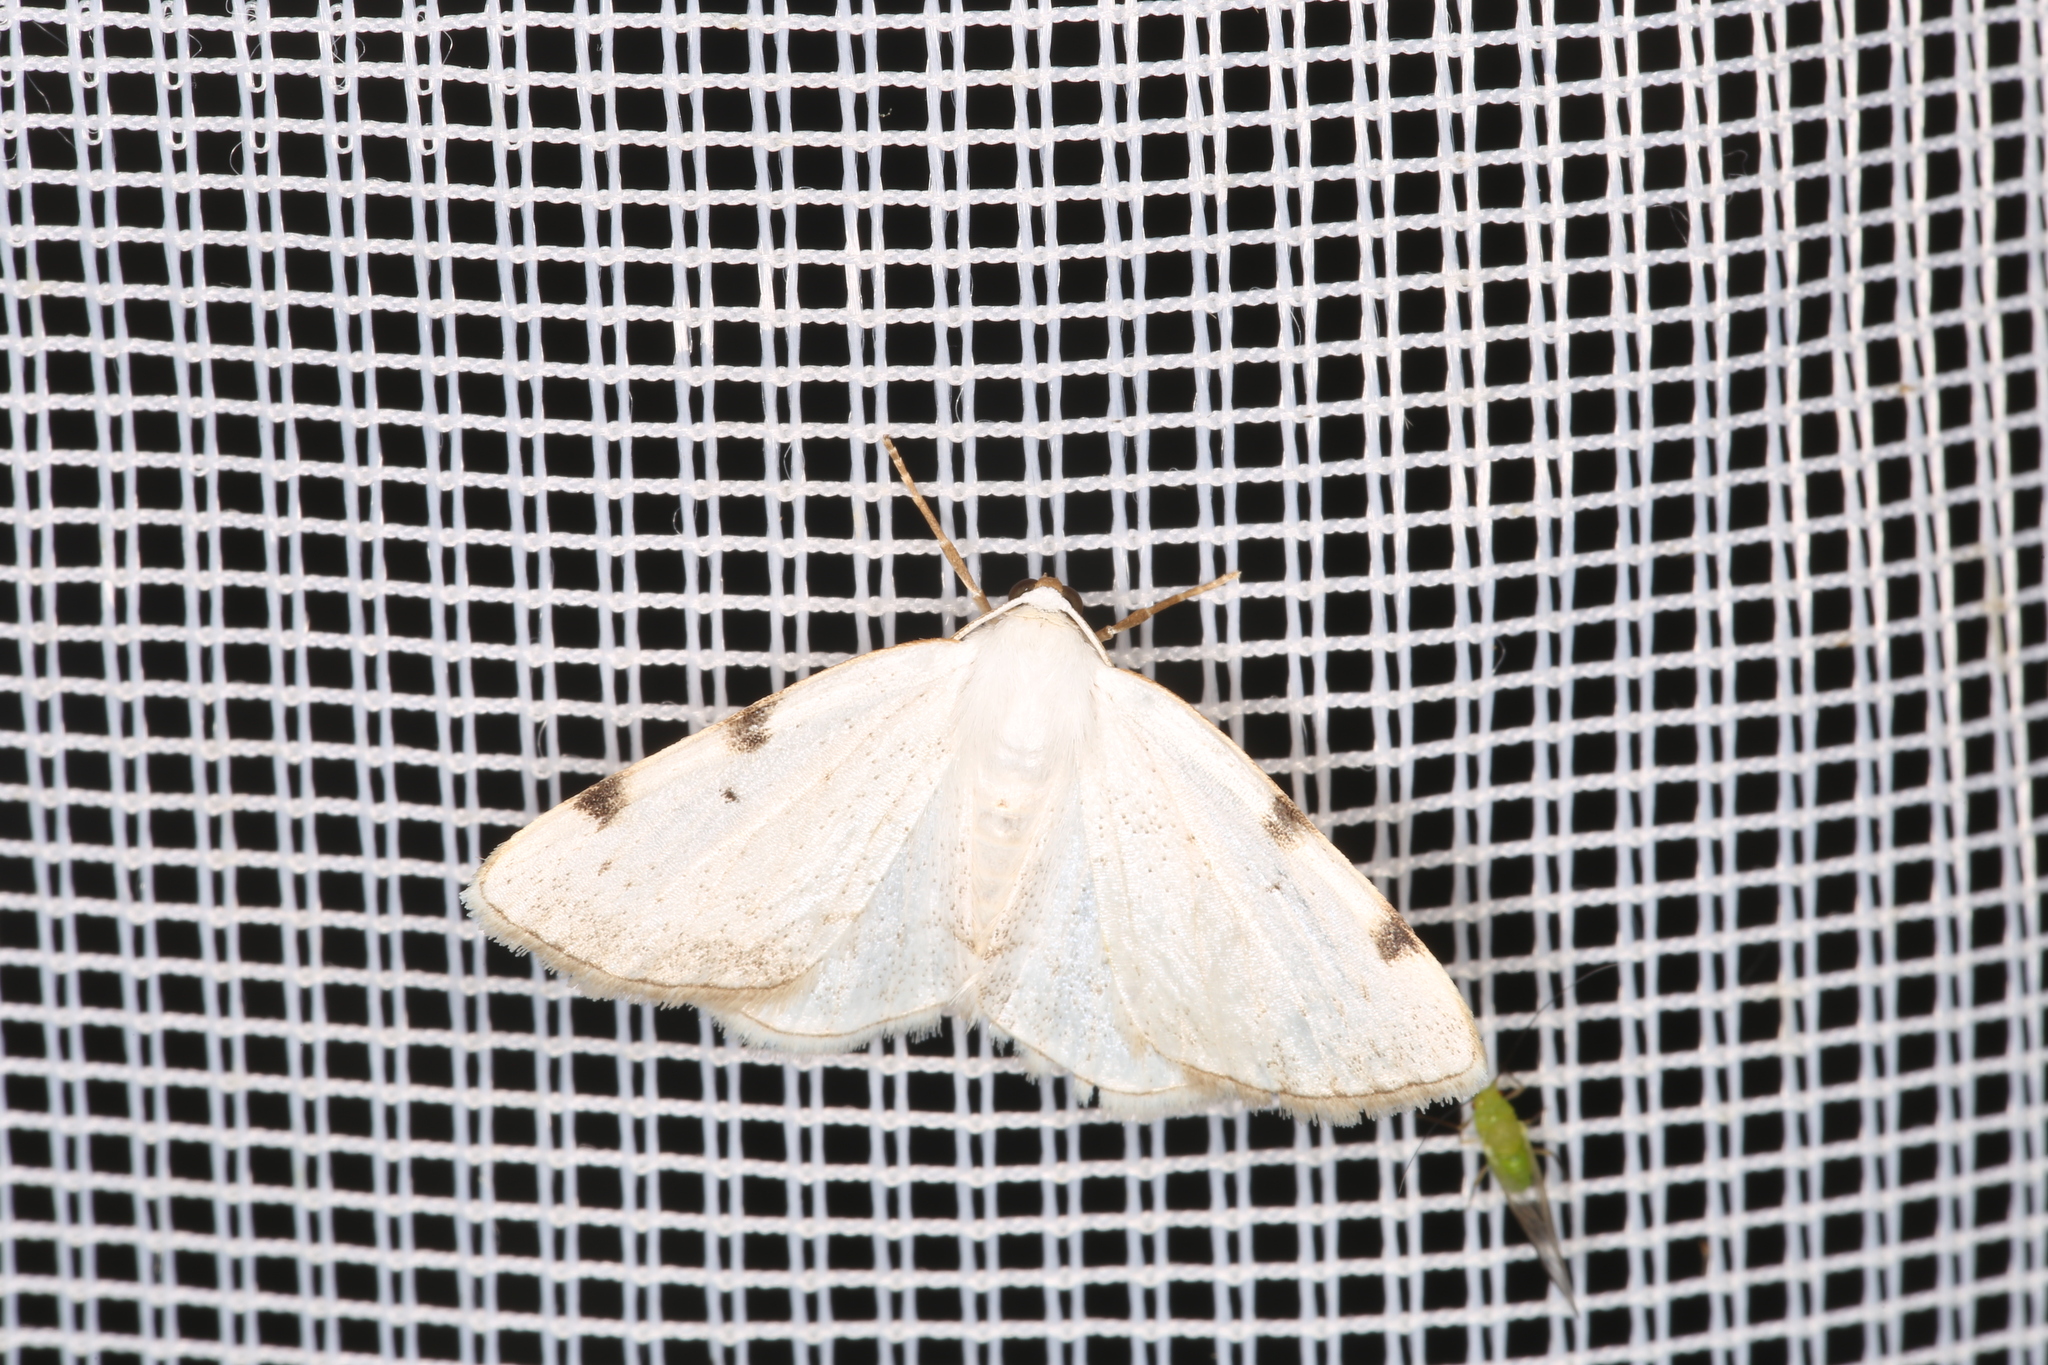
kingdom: Animalia
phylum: Arthropoda
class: Insecta
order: Lepidoptera
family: Geometridae
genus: Lomographa
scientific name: Lomographa bimaculata
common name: White-pinion spotted
